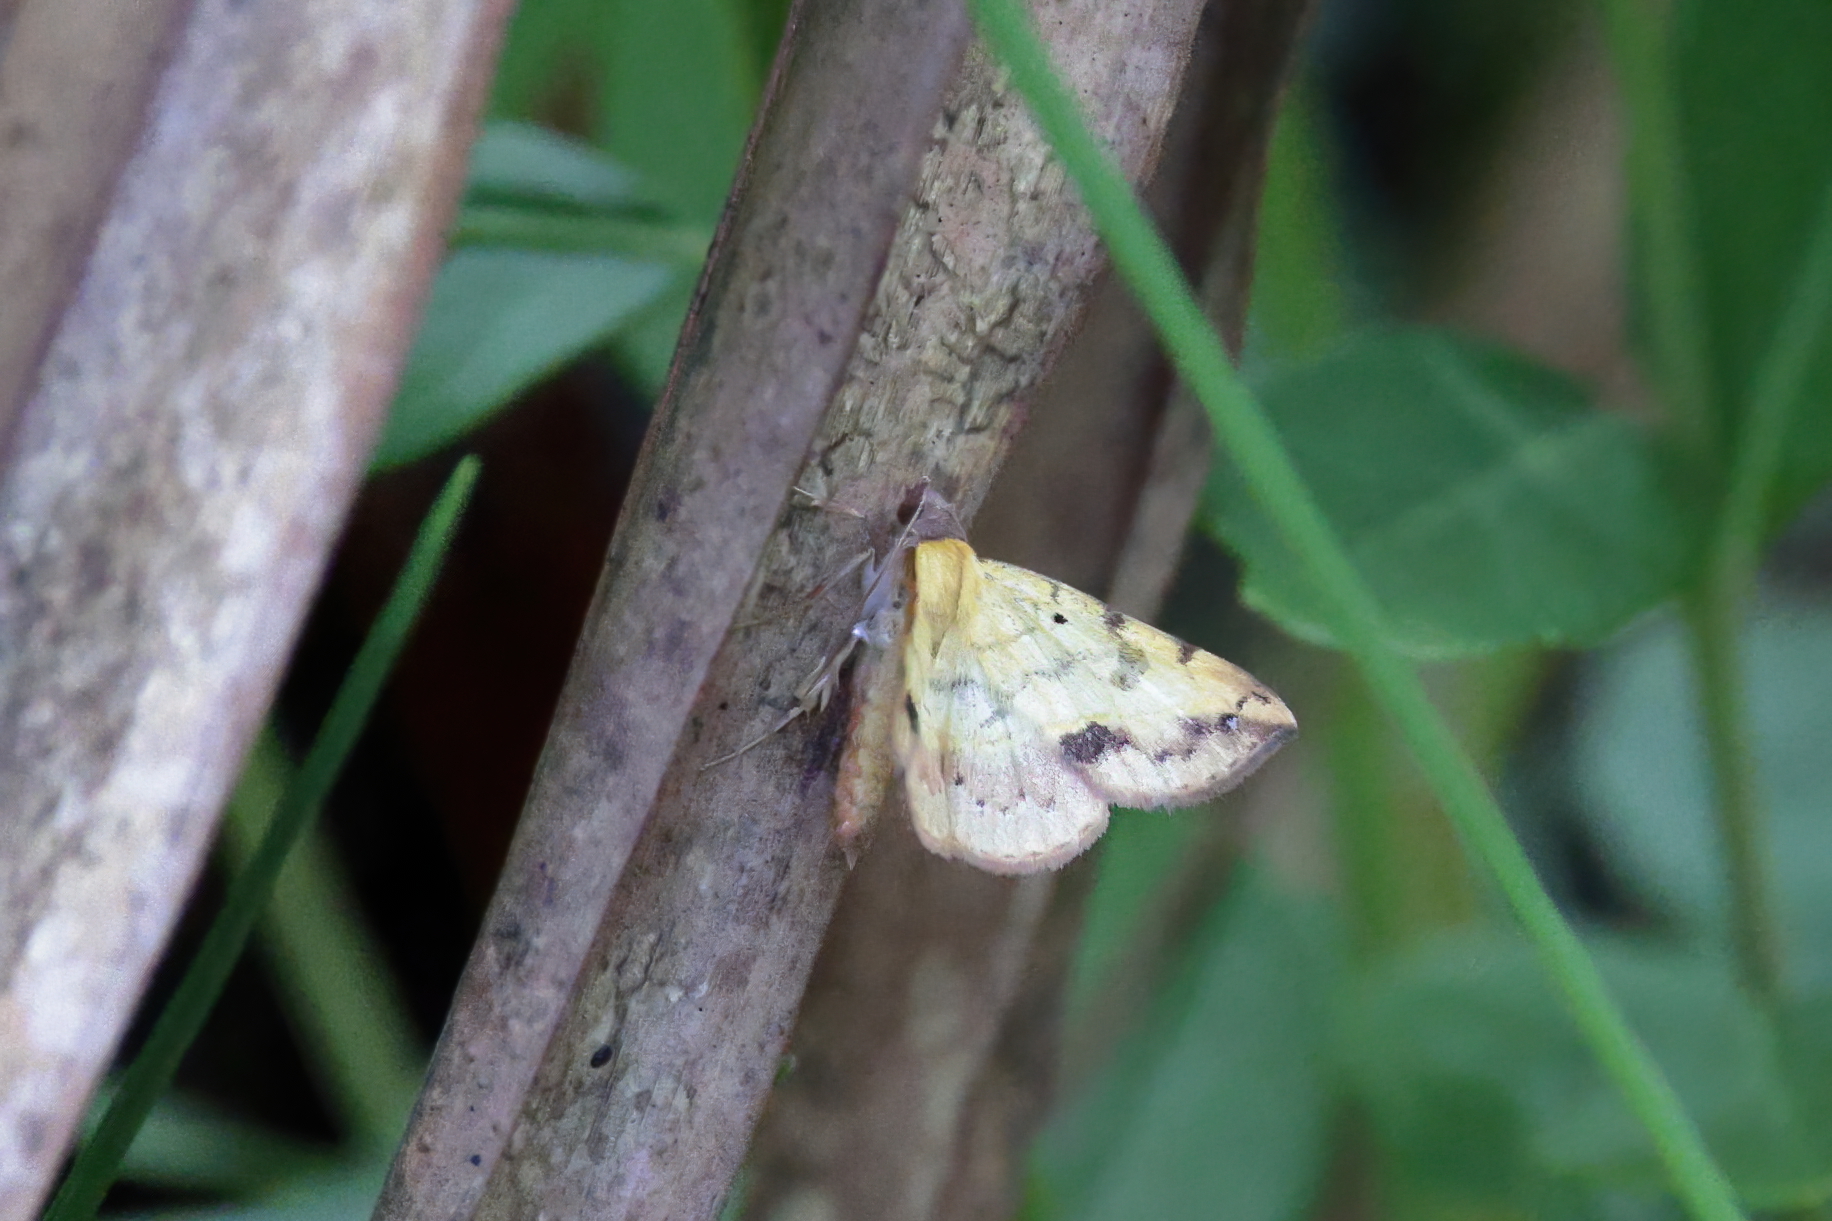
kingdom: Animalia
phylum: Arthropoda
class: Insecta
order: Lepidoptera
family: Erebidae
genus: Hemeroplanis
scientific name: Hemeroplanis scopulepes
